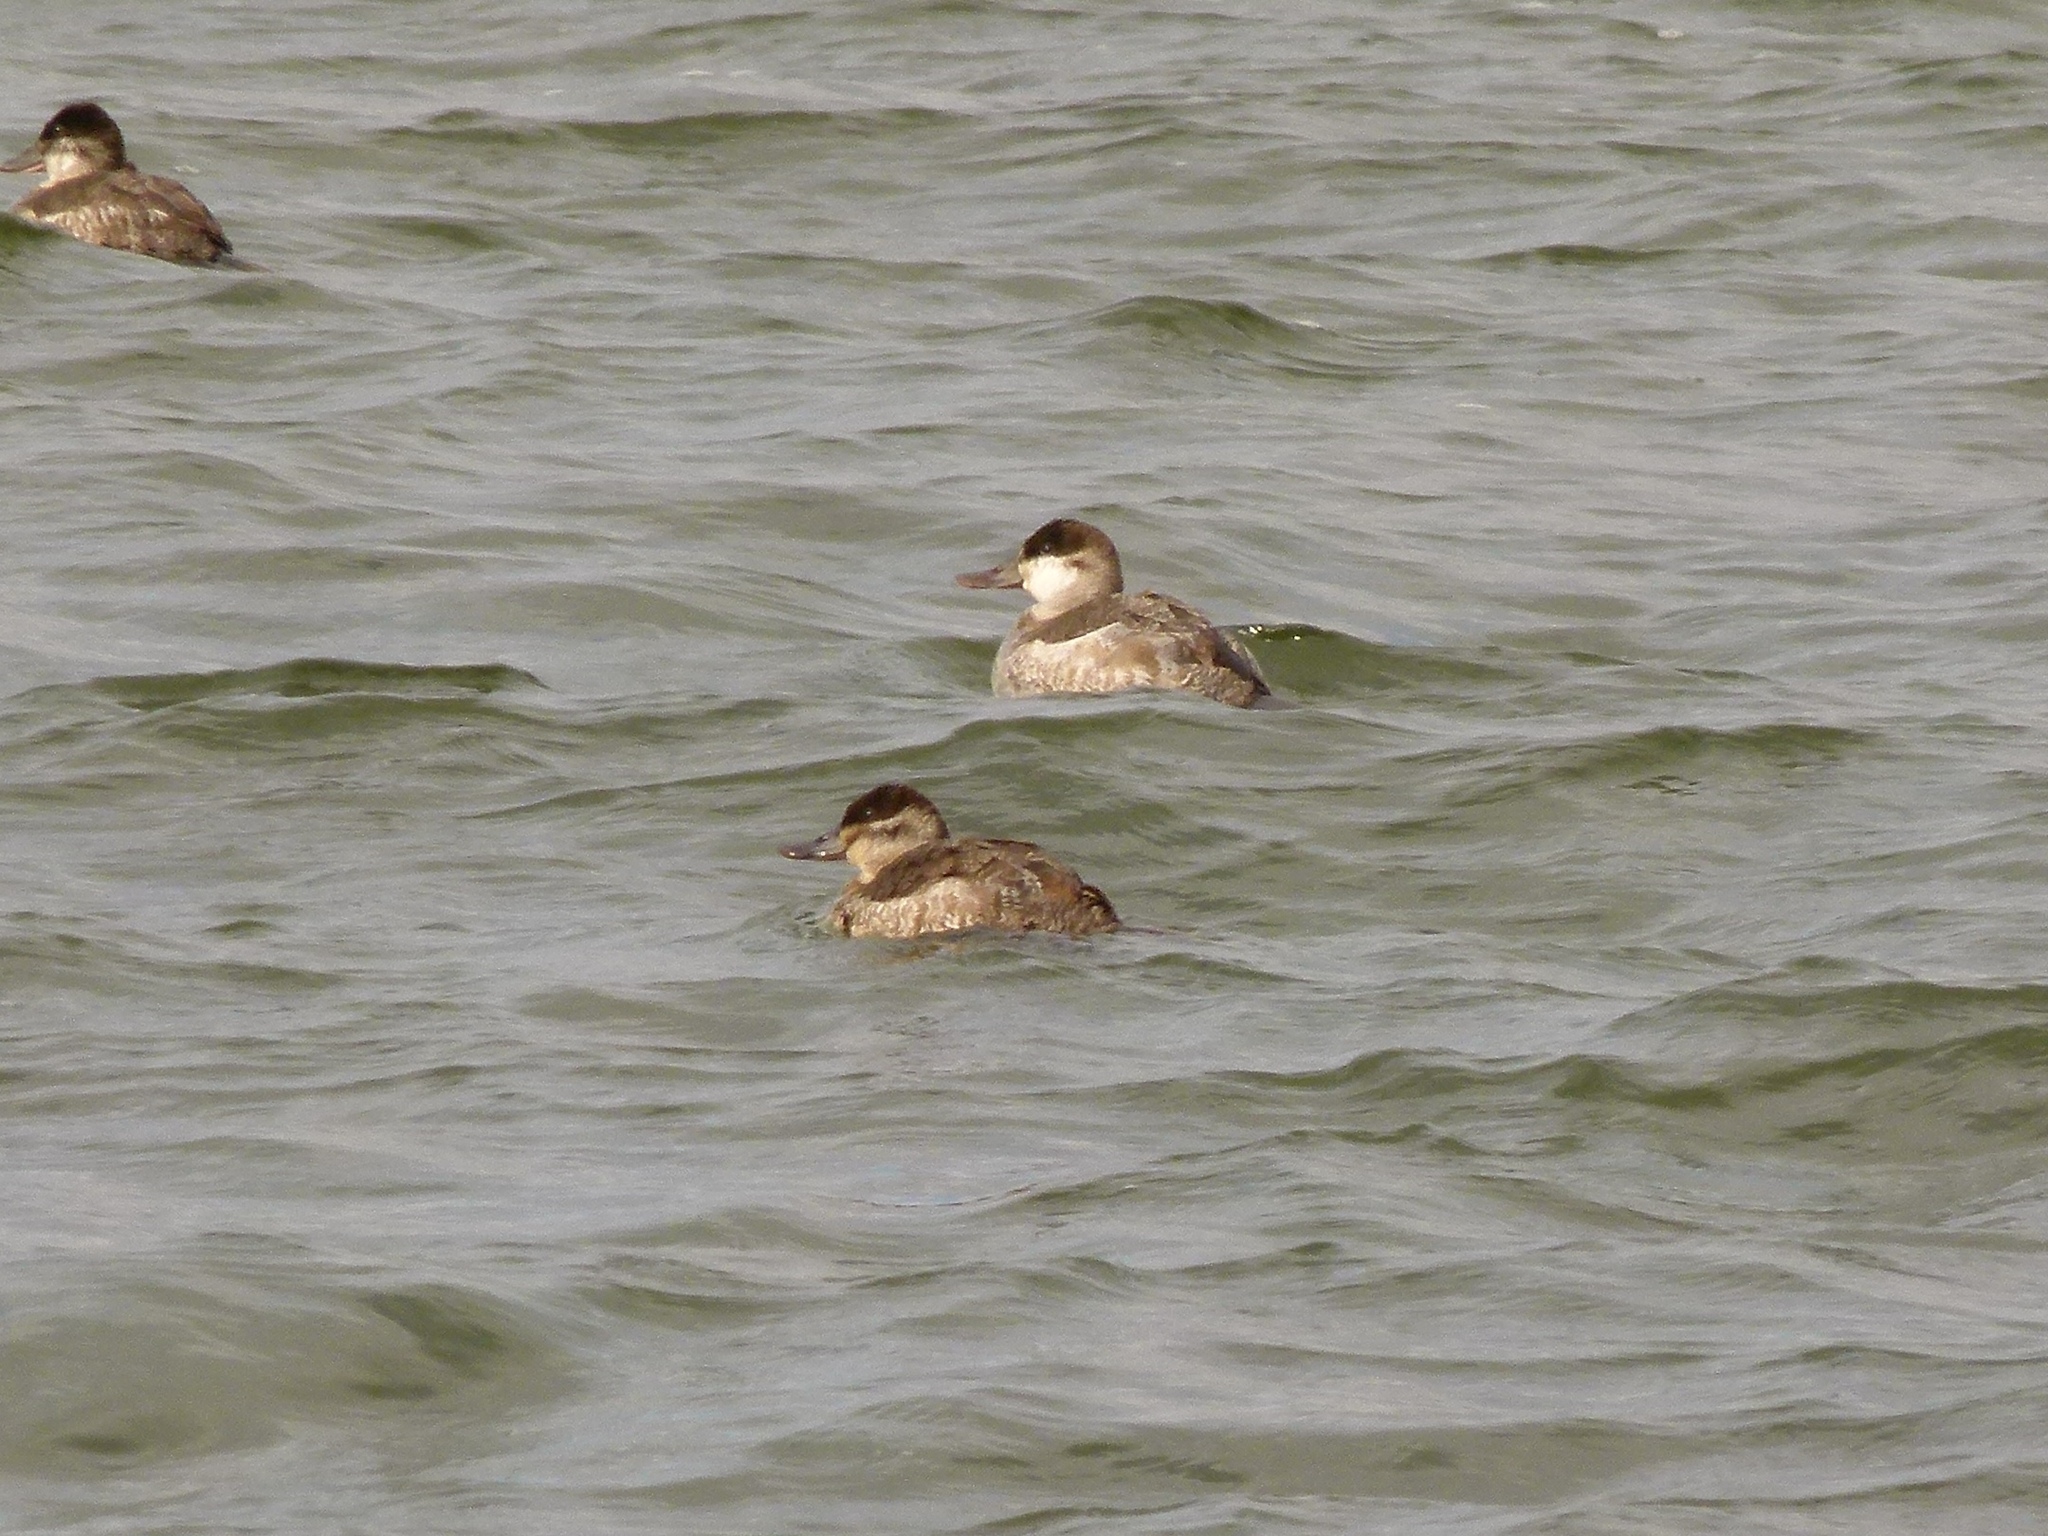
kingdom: Animalia
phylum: Chordata
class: Aves
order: Anseriformes
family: Anatidae
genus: Oxyura
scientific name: Oxyura jamaicensis
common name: Ruddy duck
